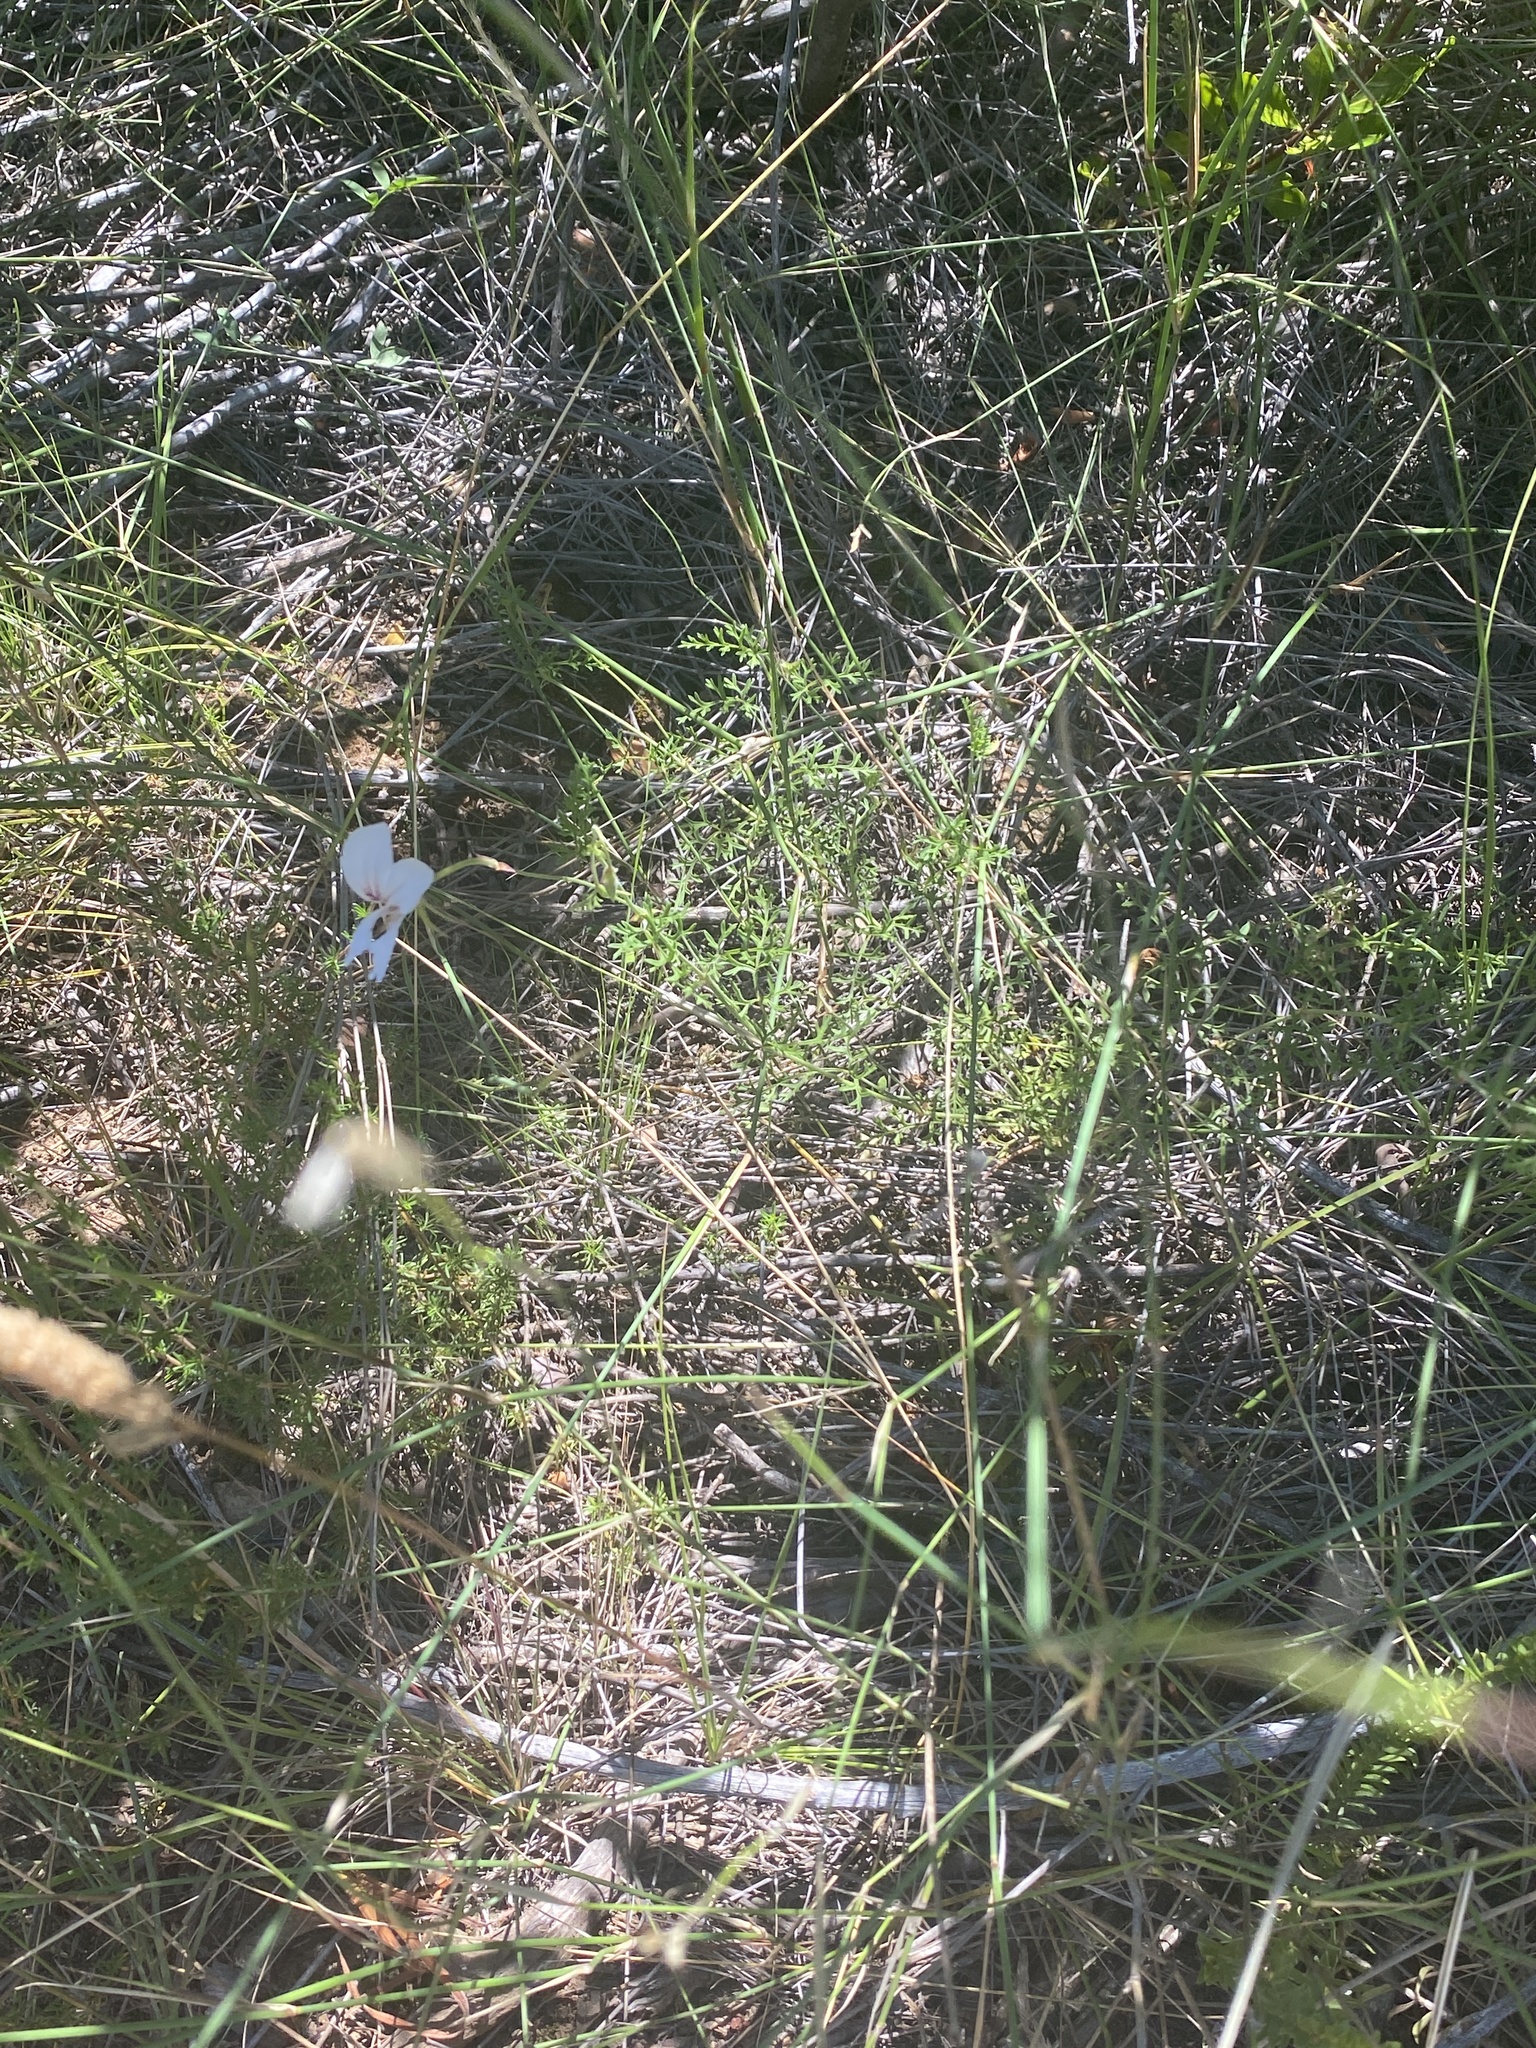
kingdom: Plantae
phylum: Tracheophyta
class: Magnoliopsida
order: Geraniales
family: Geraniaceae
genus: Pelargonium
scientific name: Pelargonium caucalifolium
